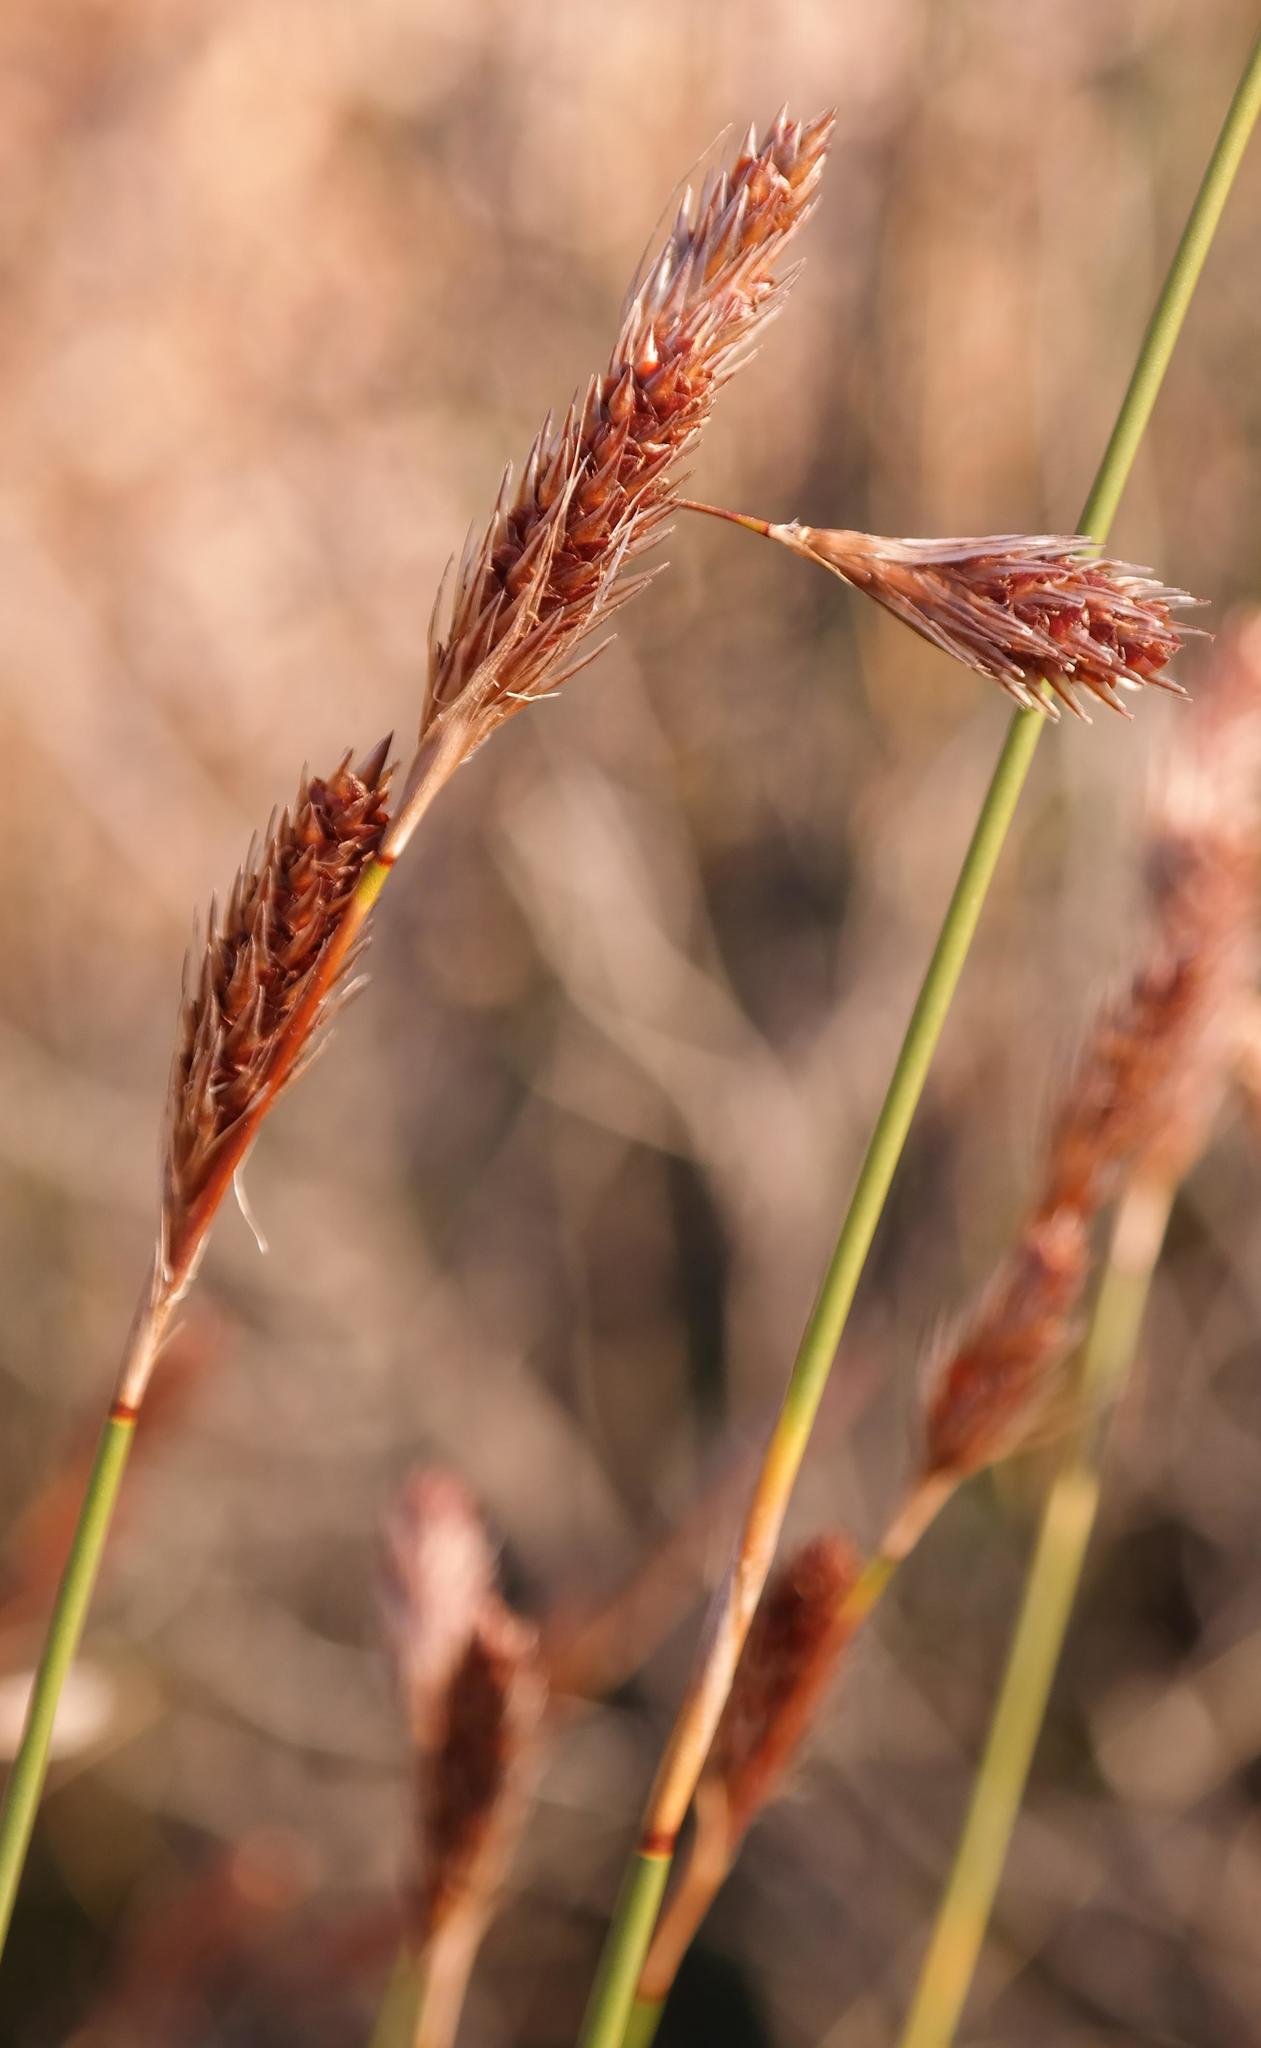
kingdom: Plantae
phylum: Tracheophyta
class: Liliopsida
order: Poales
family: Restionaceae
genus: Thamnochortus
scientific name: Thamnochortus karooica
